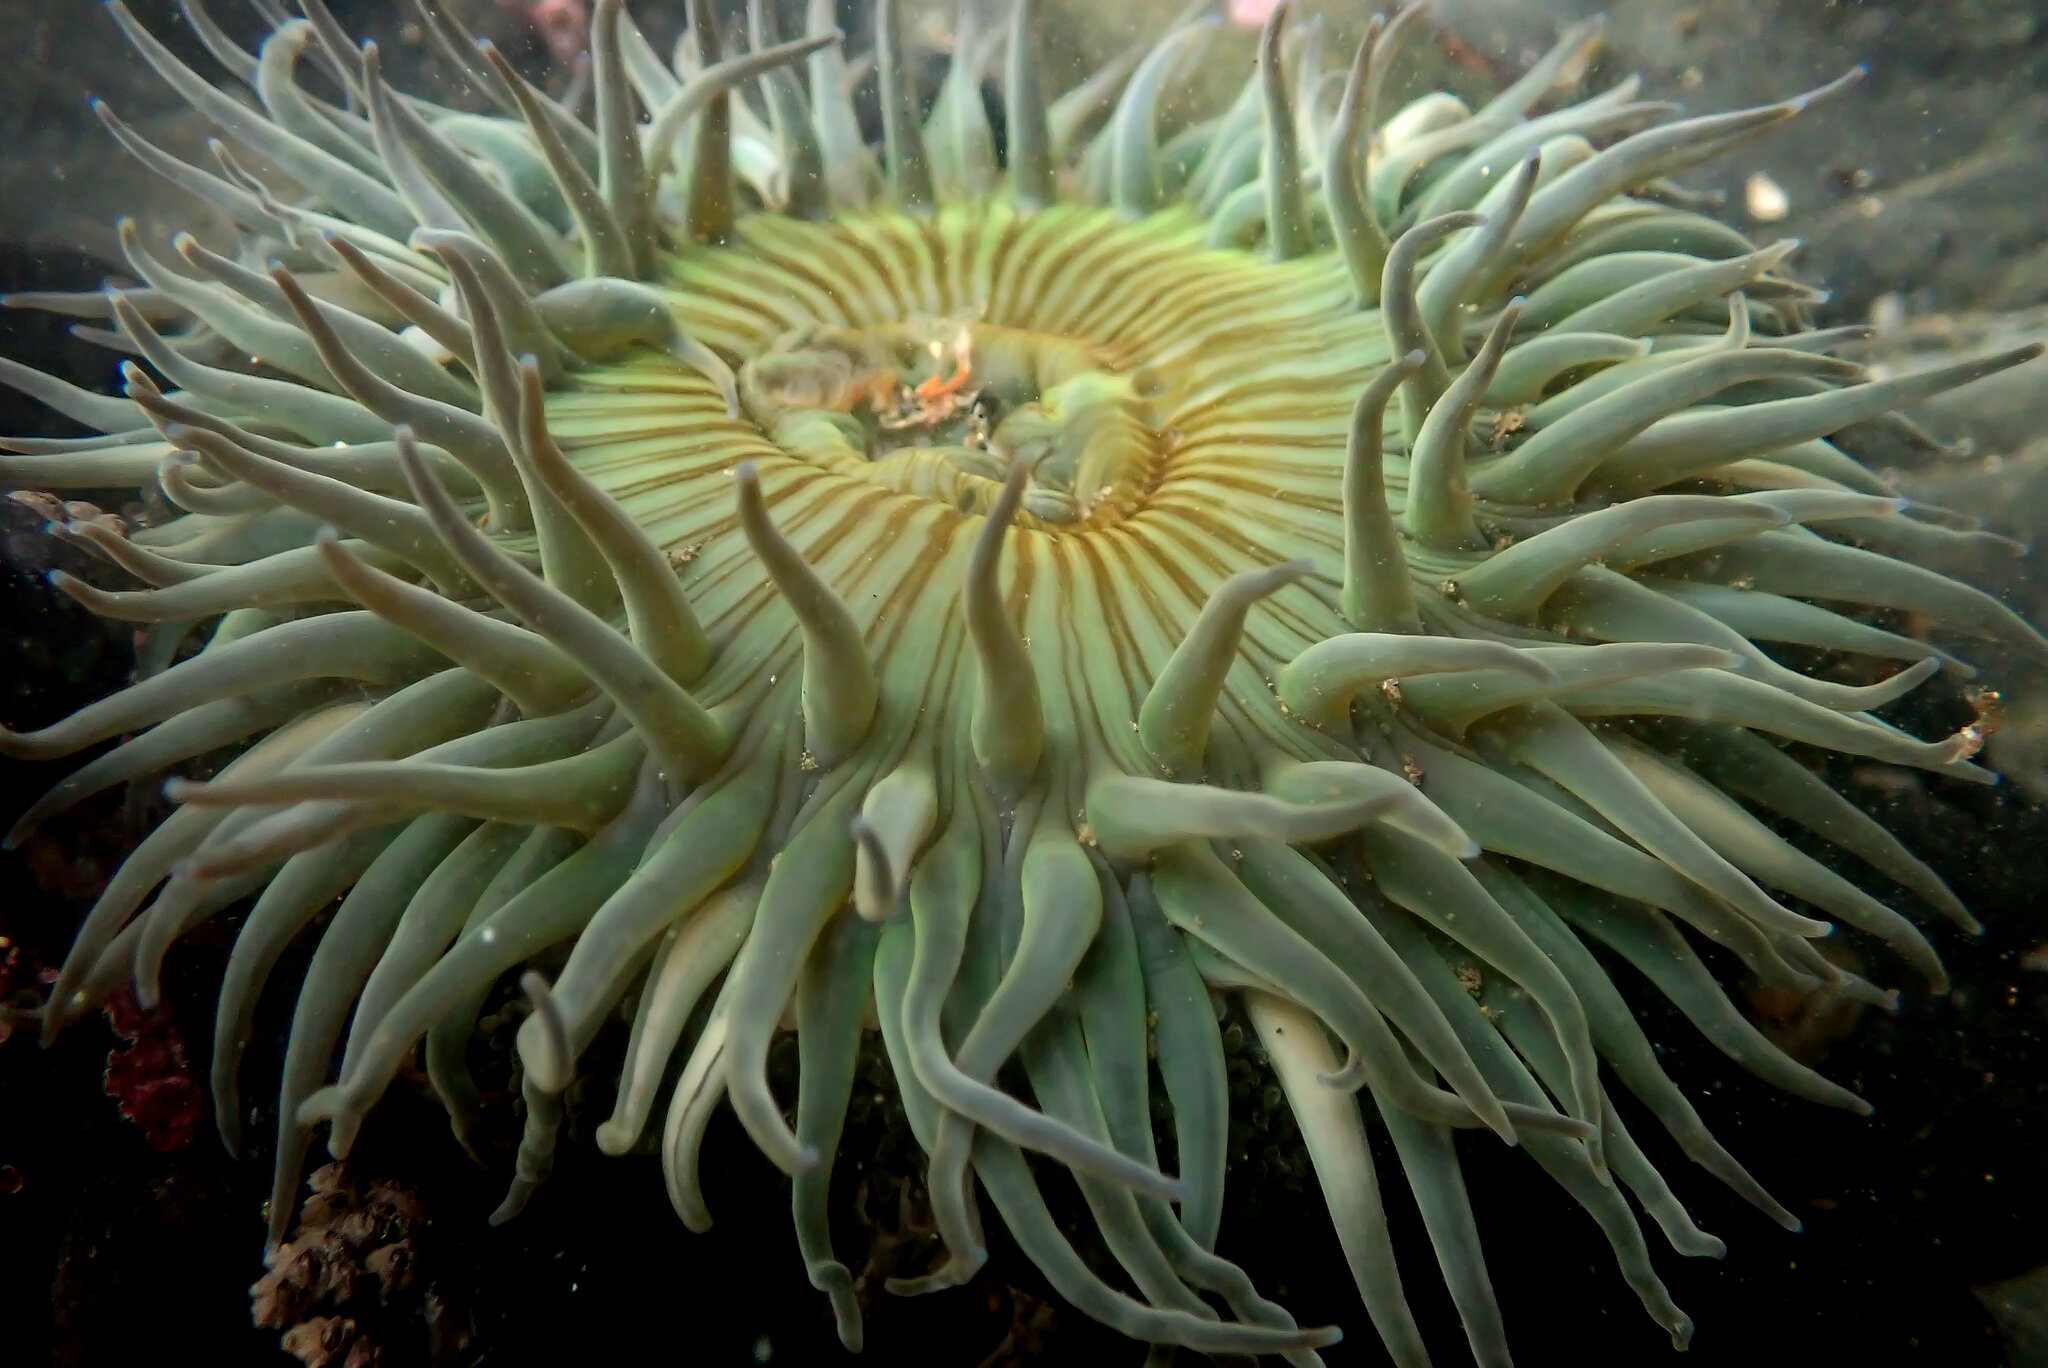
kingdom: Animalia
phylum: Cnidaria
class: Anthozoa
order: Actiniaria
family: Actiniidae
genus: Anthopleura
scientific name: Anthopleura sola
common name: Sun anemone
